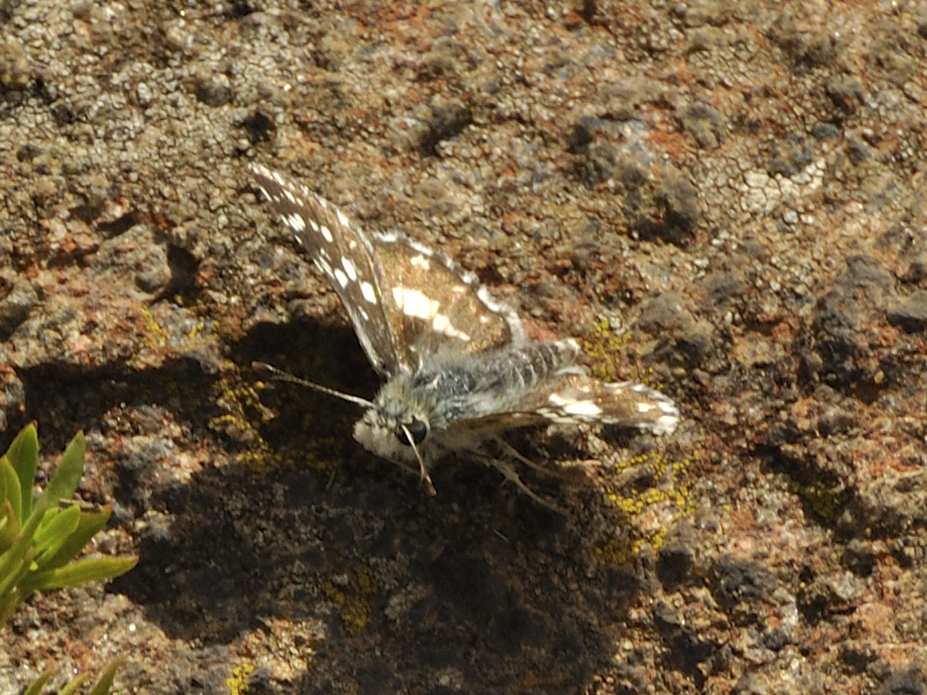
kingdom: Animalia
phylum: Arthropoda
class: Insecta
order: Lepidoptera
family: Hesperiidae
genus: Agyllia
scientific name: Agyllia
